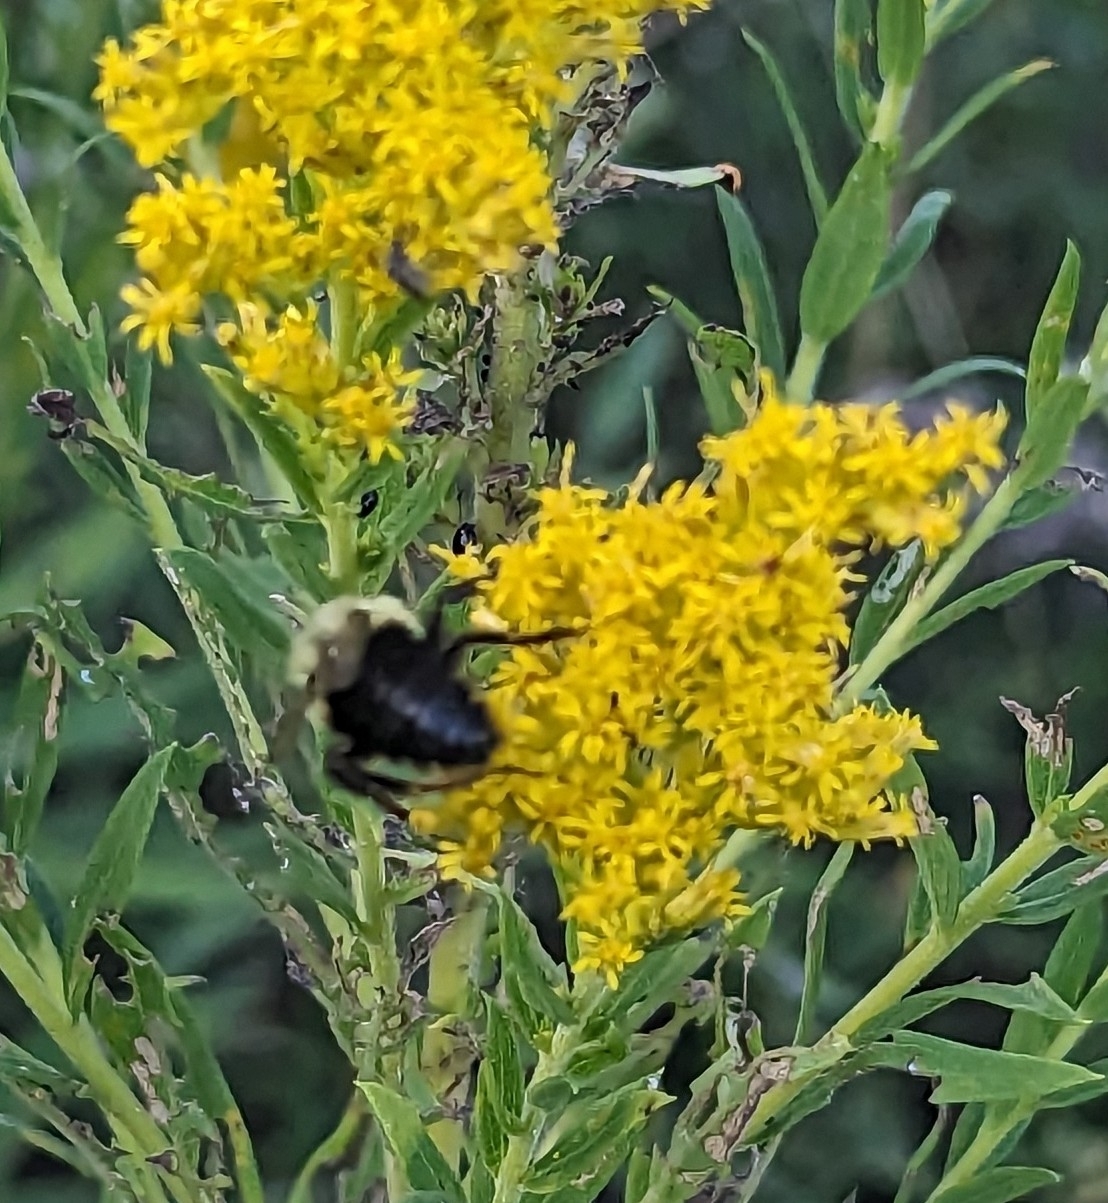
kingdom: Animalia
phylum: Arthropoda
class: Insecta
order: Hymenoptera
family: Apidae
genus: Bombus
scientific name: Bombus impatiens
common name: Common eastern bumble bee
